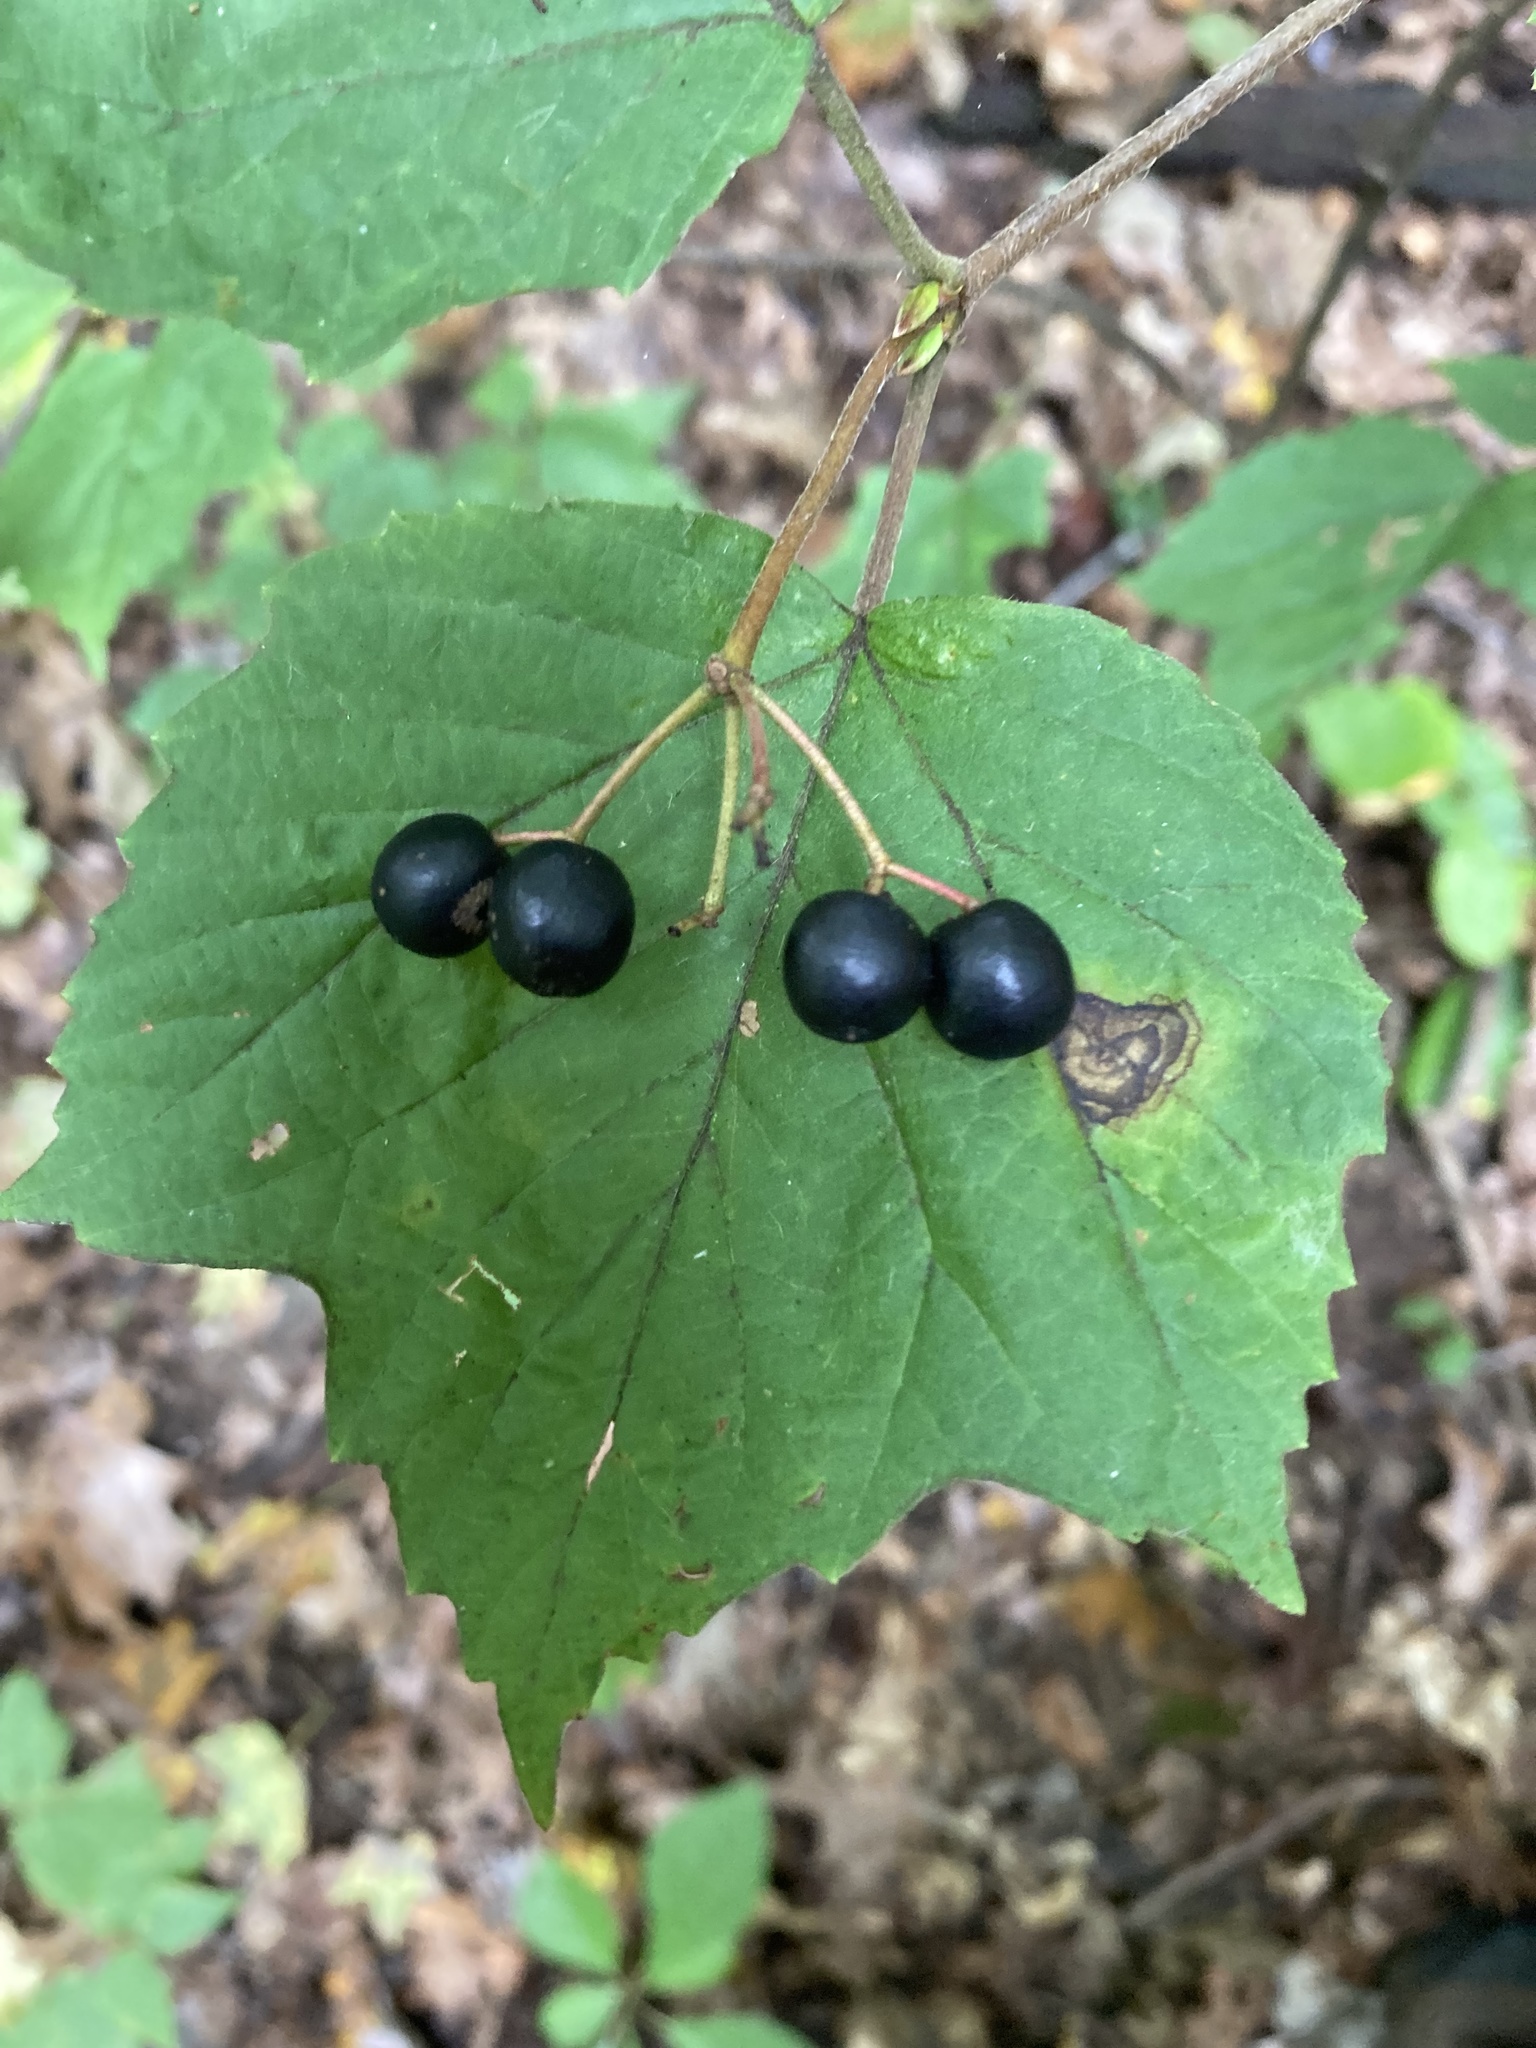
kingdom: Plantae
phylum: Tracheophyta
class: Magnoliopsida
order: Dipsacales
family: Viburnaceae
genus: Viburnum
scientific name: Viburnum acerifolium
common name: Dockmackie
